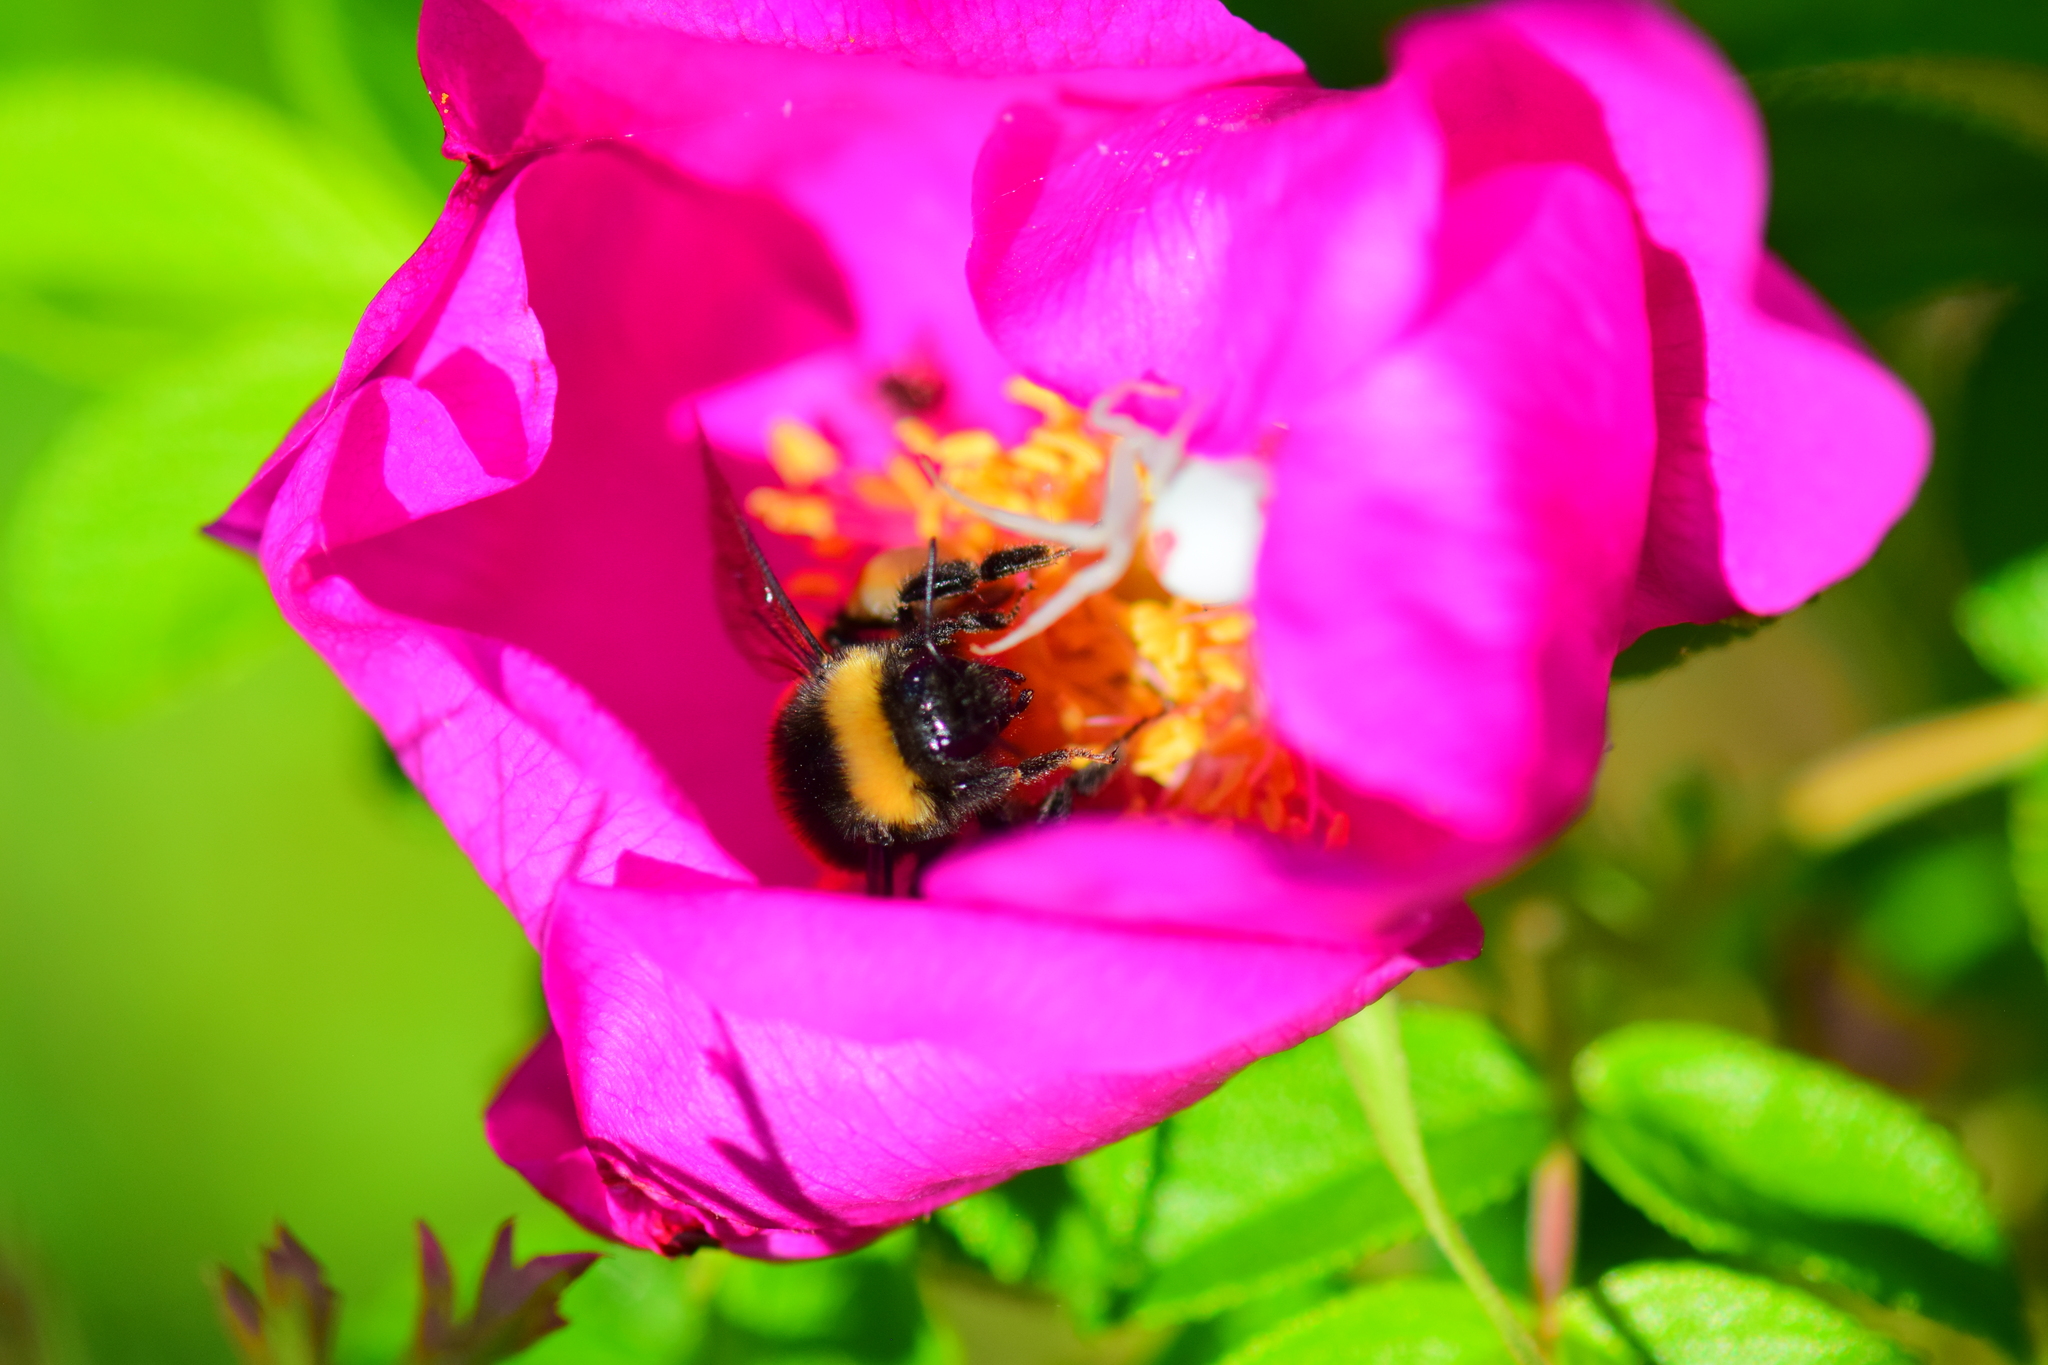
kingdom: Animalia
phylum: Arthropoda
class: Insecta
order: Hymenoptera
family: Apidae
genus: Bombus
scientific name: Bombus terricola
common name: Yellow-banded bumble bee
